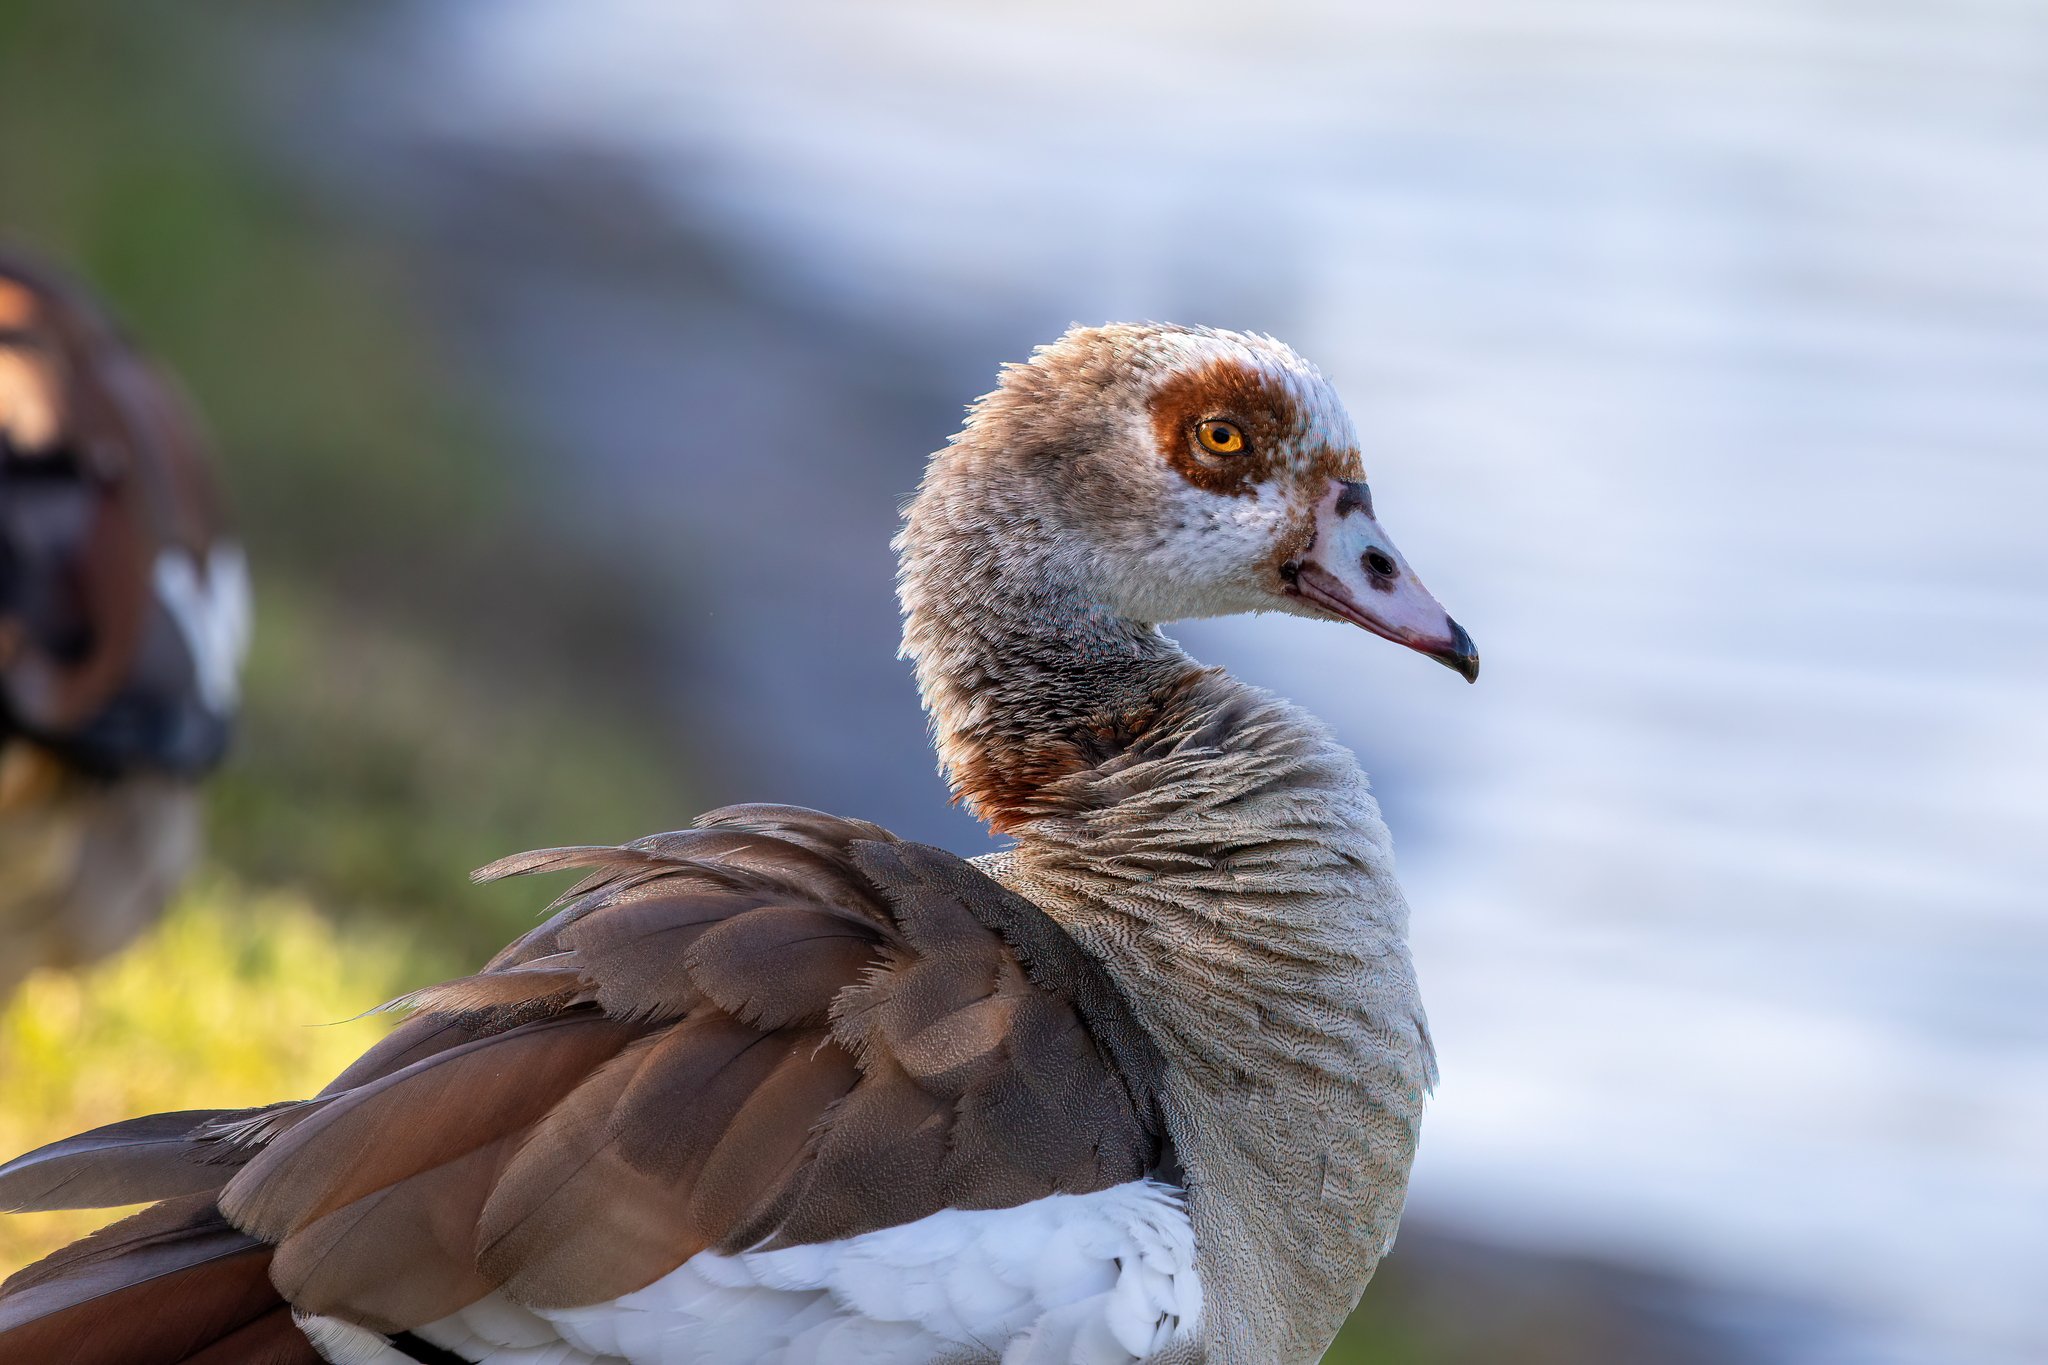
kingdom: Animalia
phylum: Chordata
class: Aves
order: Anseriformes
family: Anatidae
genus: Alopochen
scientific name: Alopochen aegyptiaca
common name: Egyptian goose
